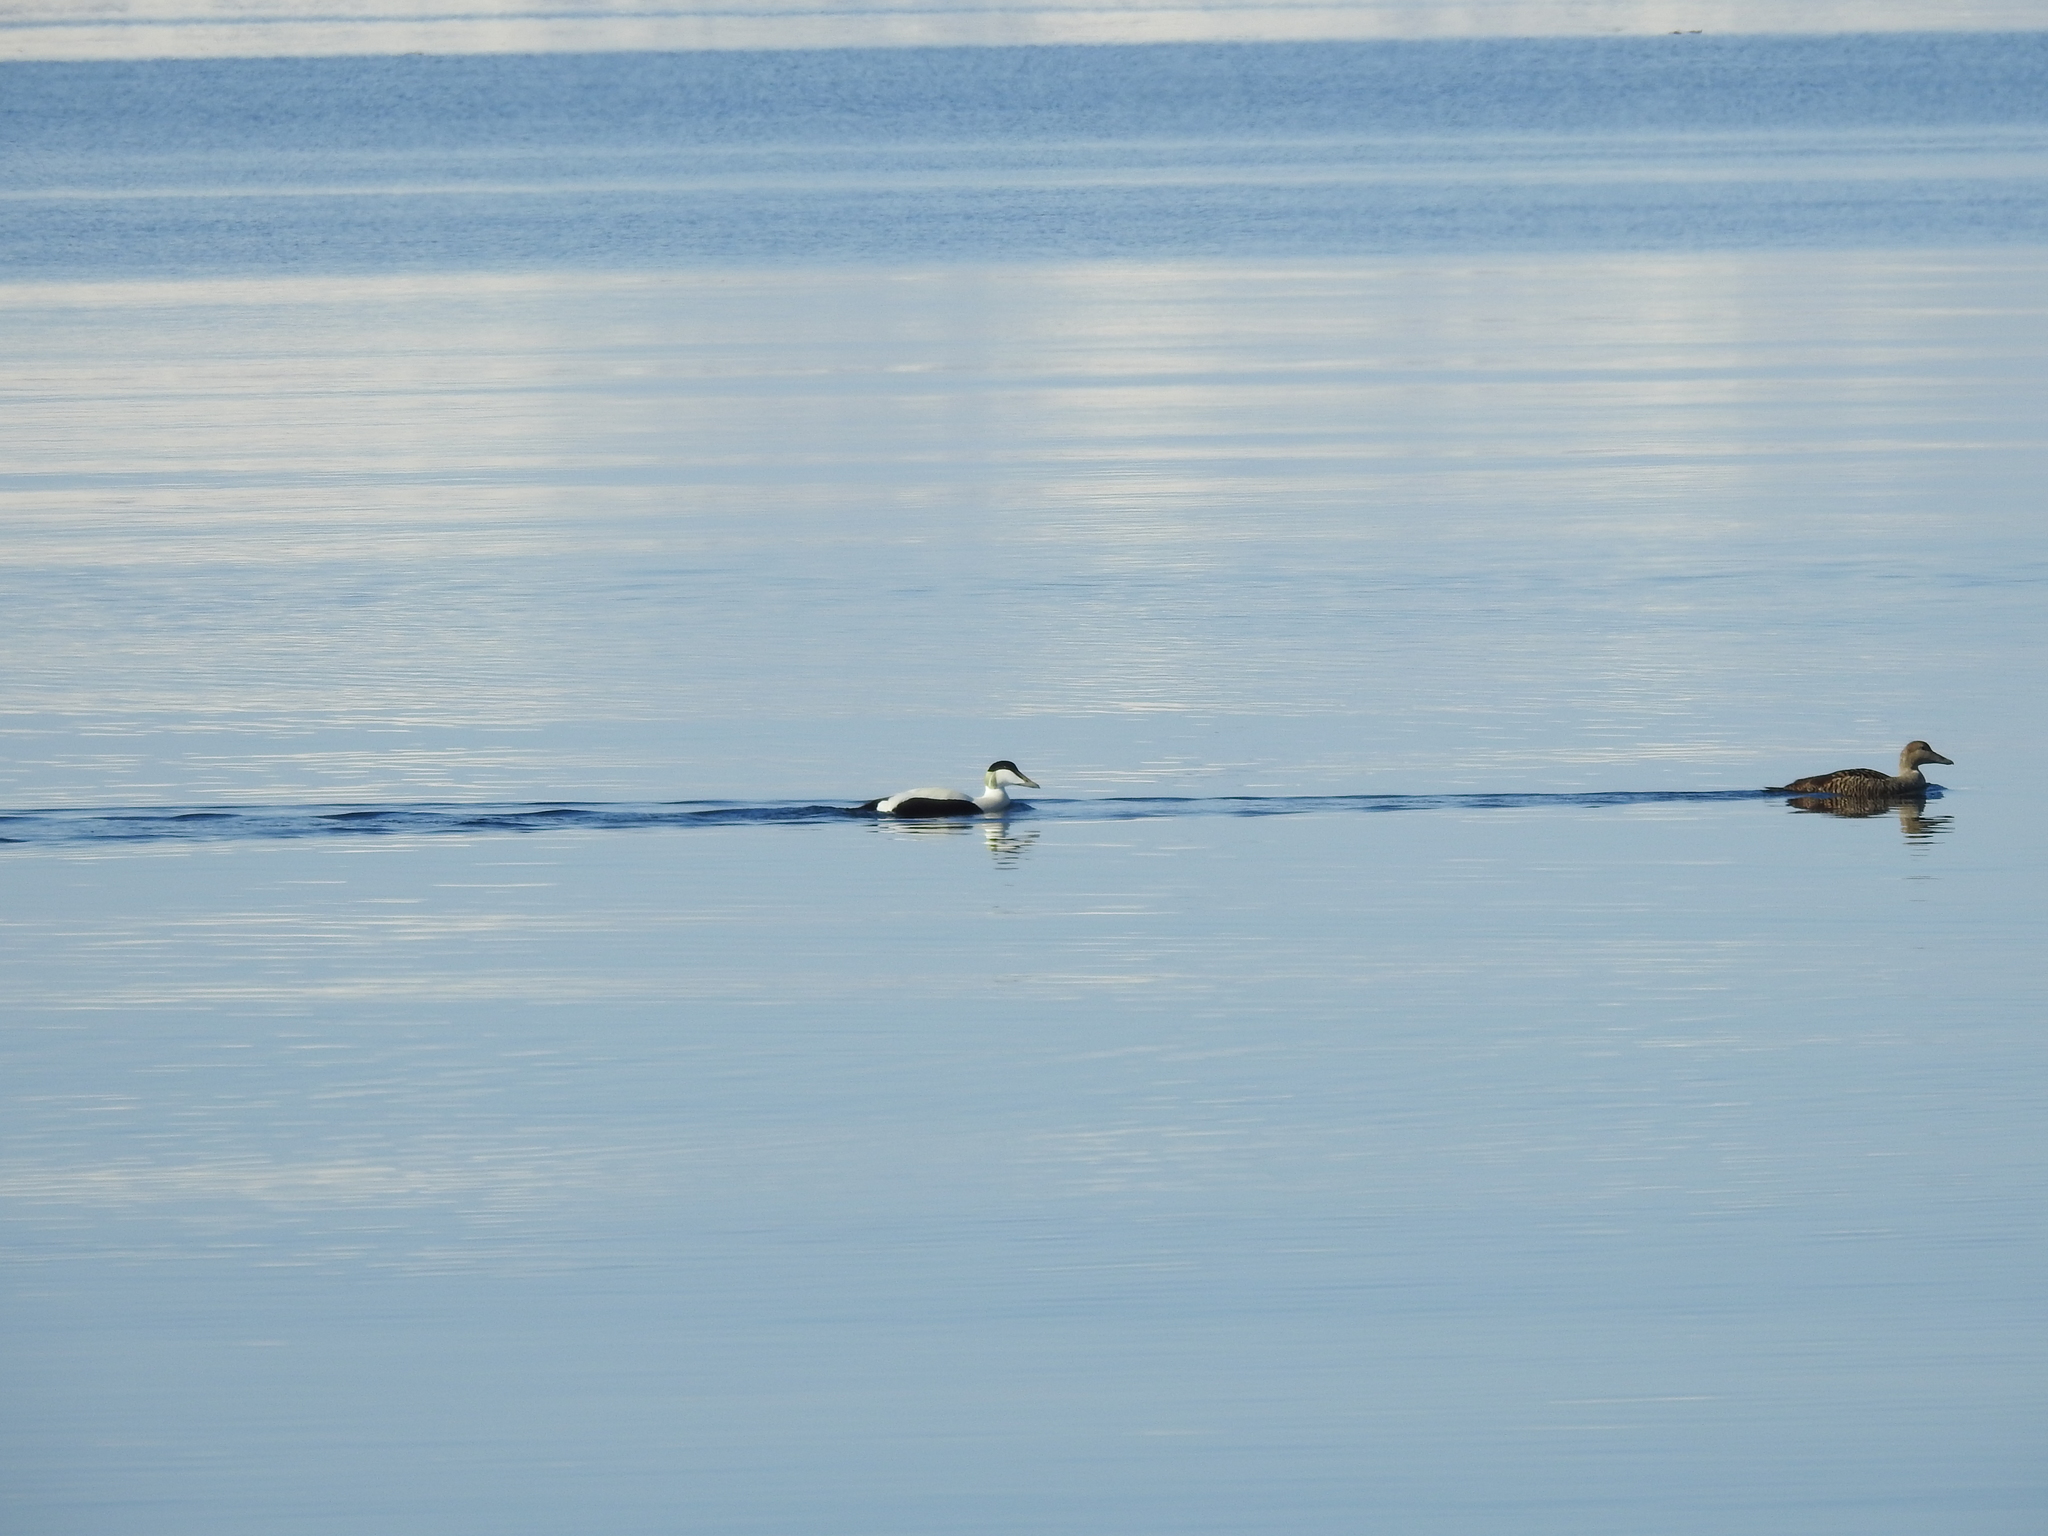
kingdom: Animalia
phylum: Chordata
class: Aves
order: Anseriformes
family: Anatidae
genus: Somateria
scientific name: Somateria mollissima
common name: Common eider
